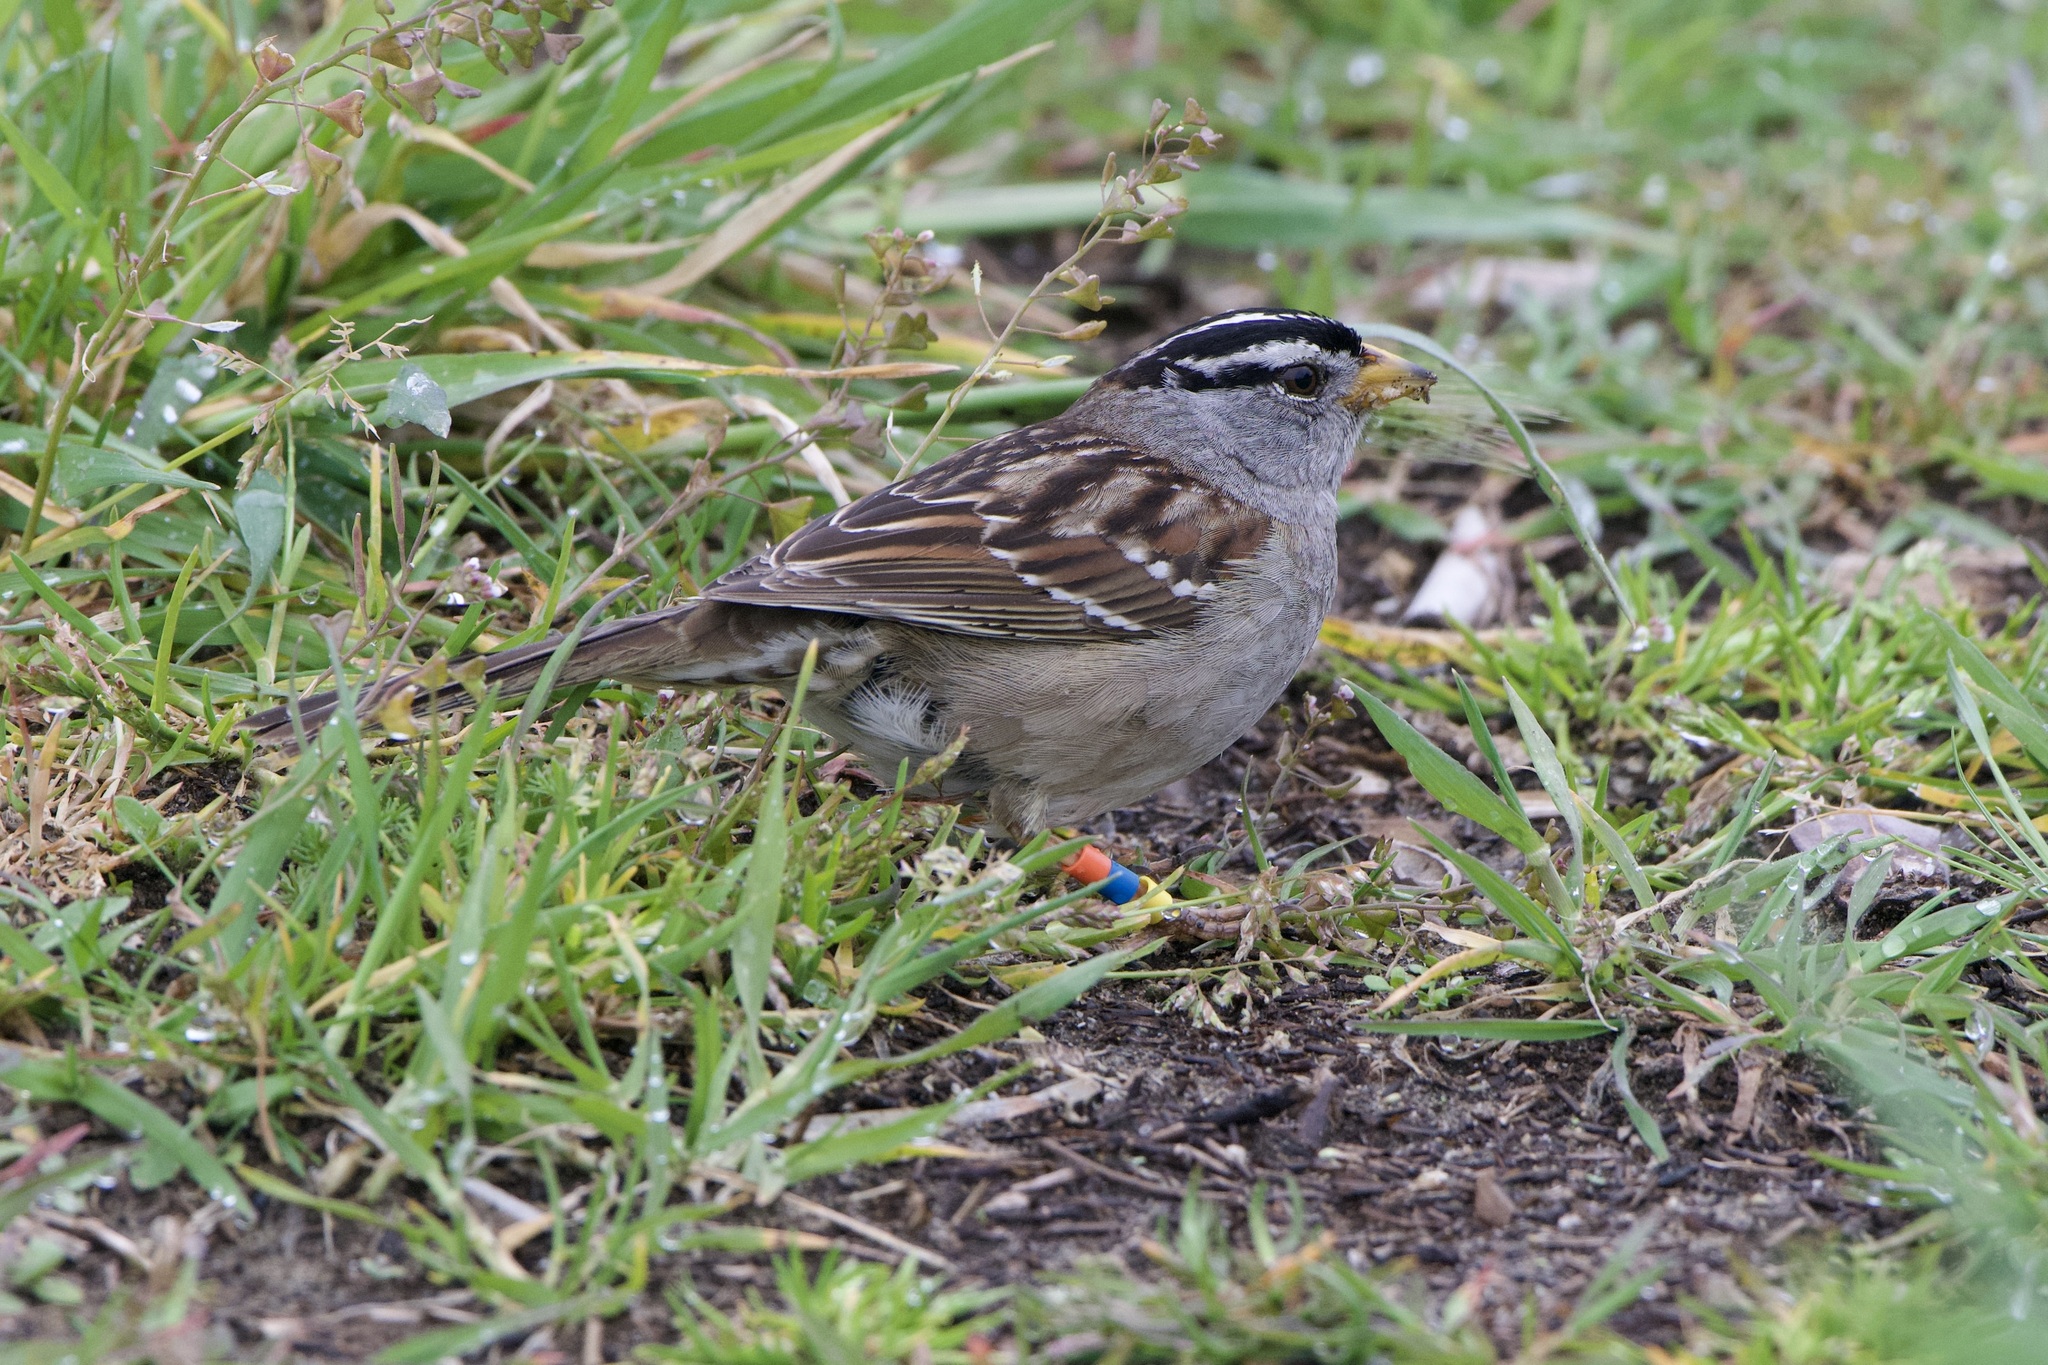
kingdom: Animalia
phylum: Chordata
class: Aves
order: Passeriformes
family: Passerellidae
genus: Zonotrichia
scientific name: Zonotrichia leucophrys
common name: White-crowned sparrow
